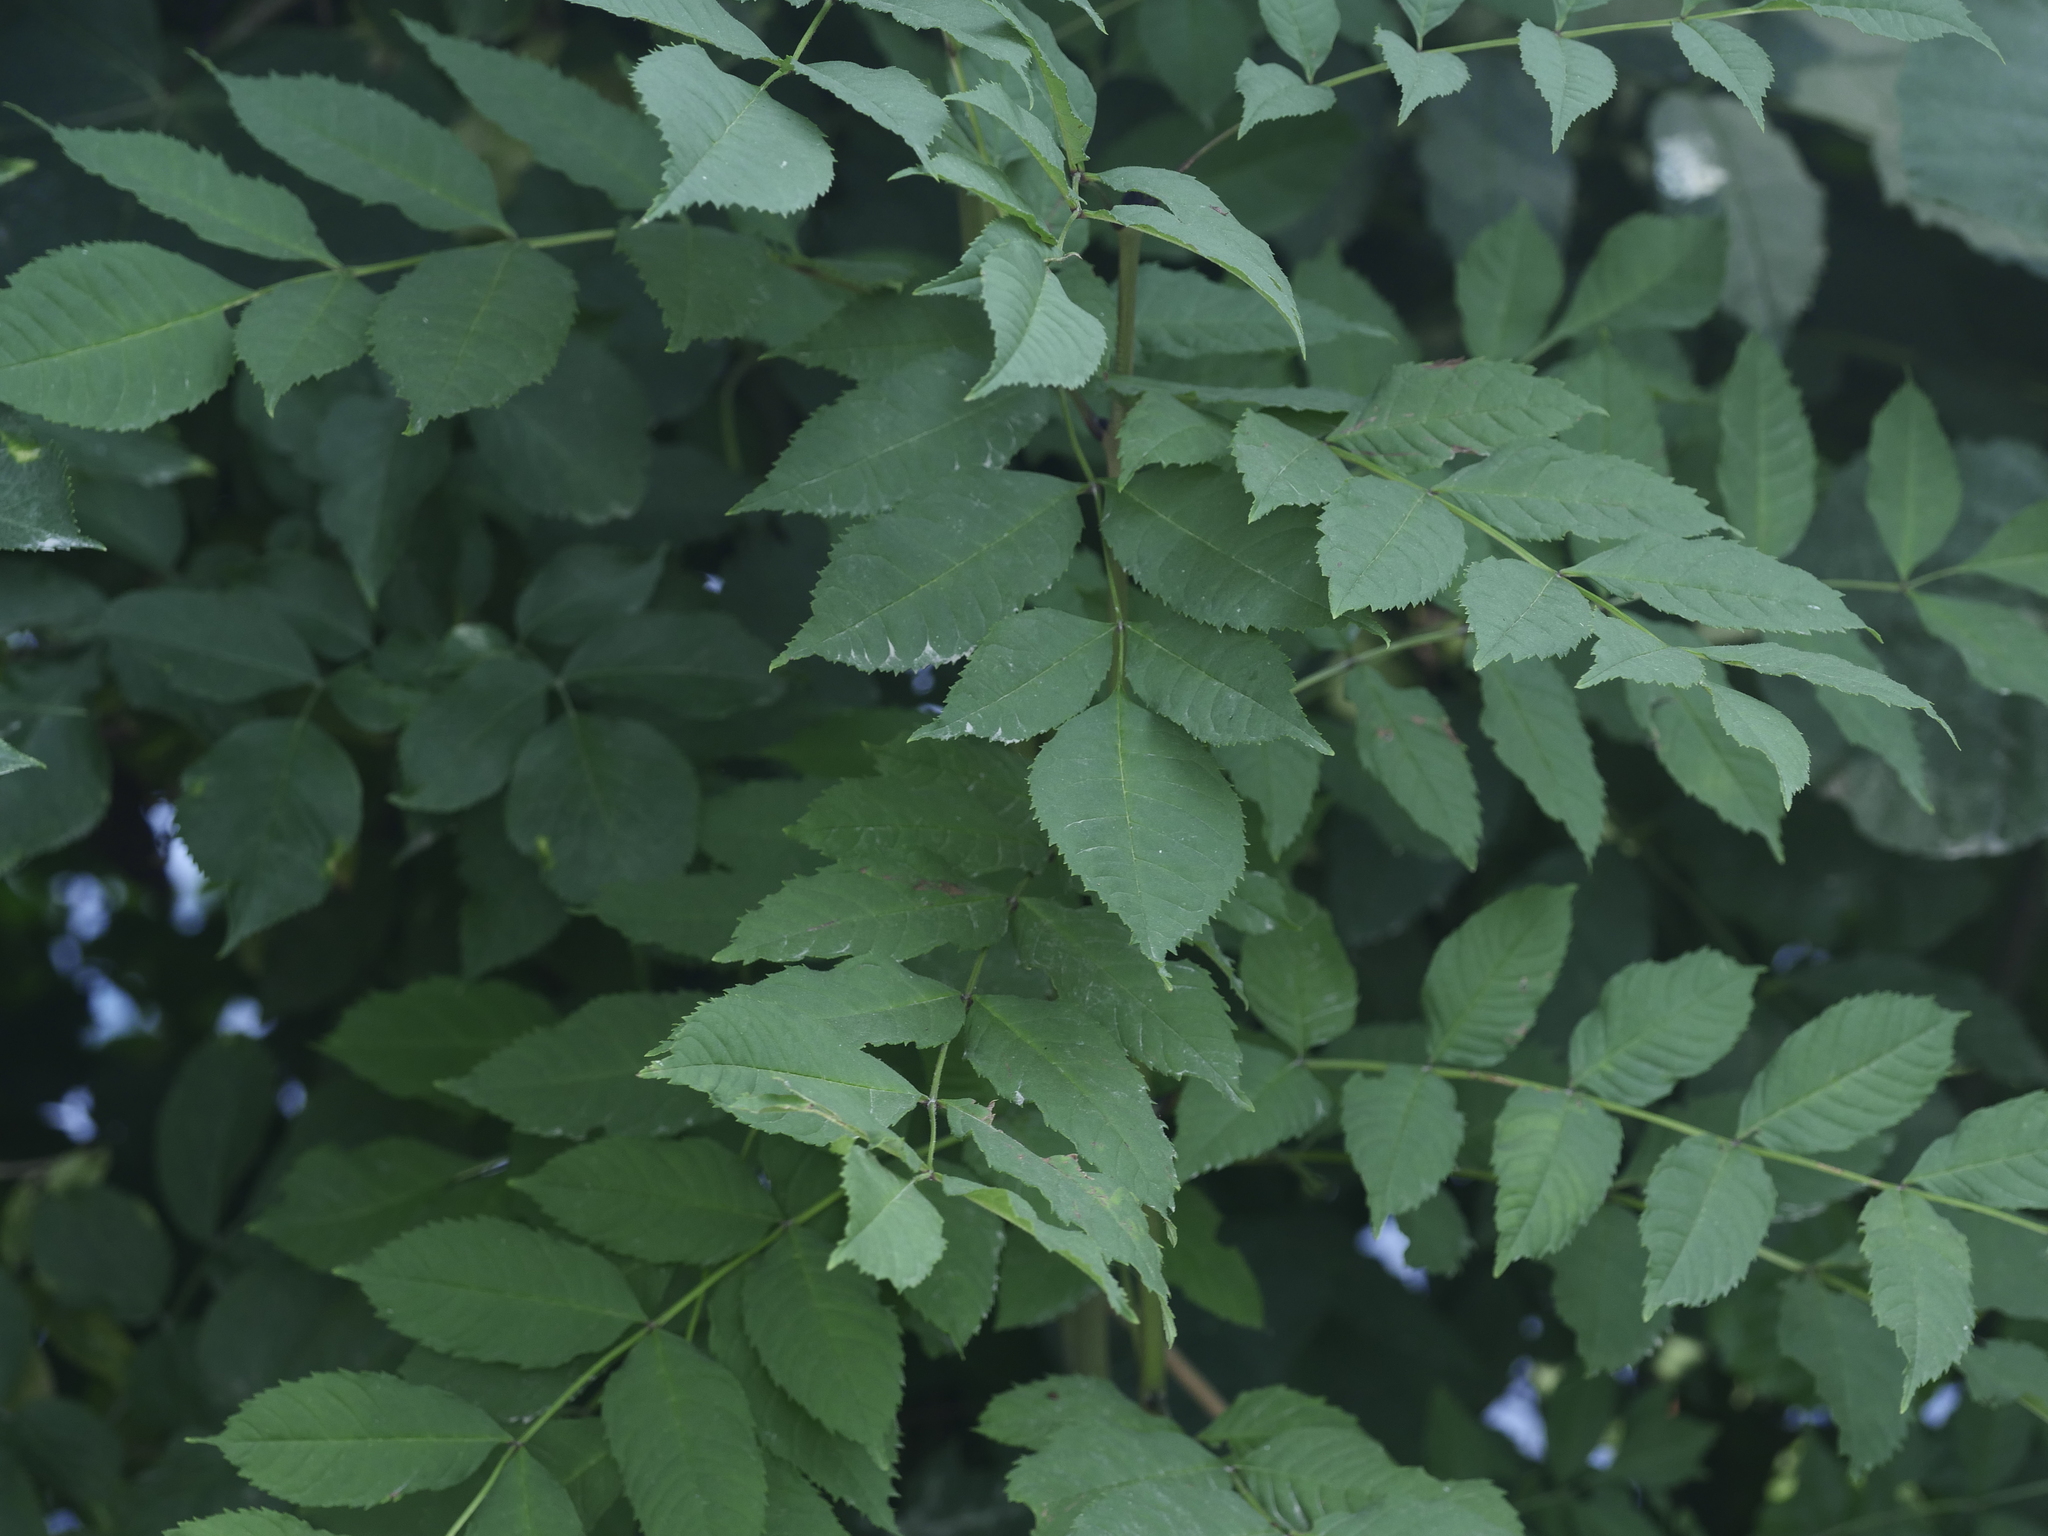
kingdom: Plantae
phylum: Tracheophyta
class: Magnoliopsida
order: Lamiales
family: Oleaceae
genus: Fraxinus
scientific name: Fraxinus excelsior
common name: European ash
